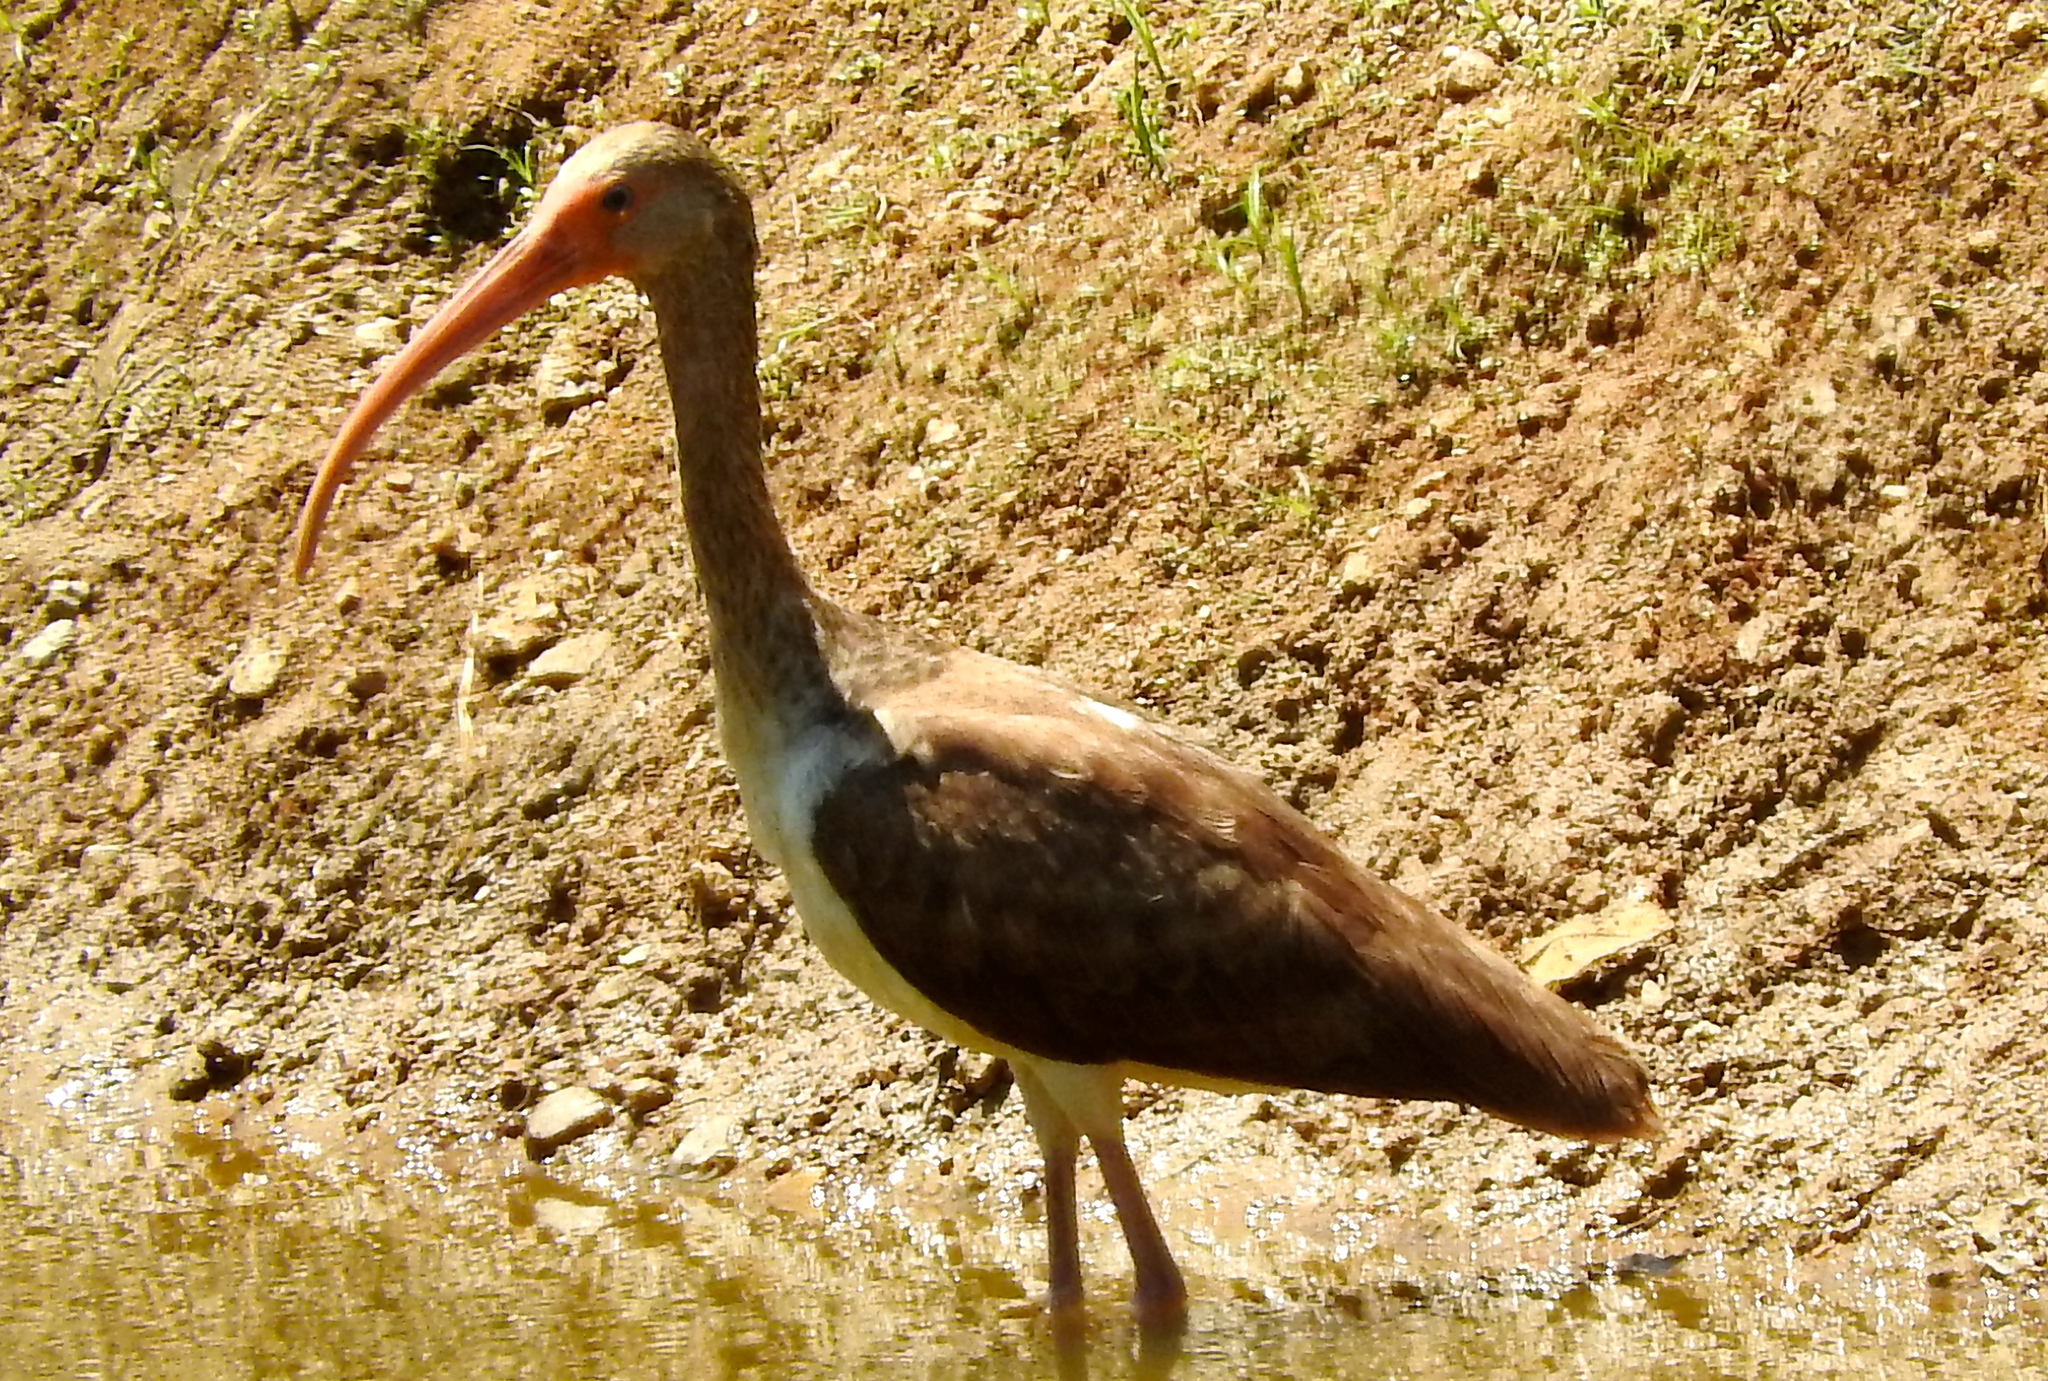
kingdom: Animalia
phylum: Chordata
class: Aves
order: Pelecaniformes
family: Threskiornithidae
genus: Eudocimus
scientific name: Eudocimus albus
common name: White ibis
